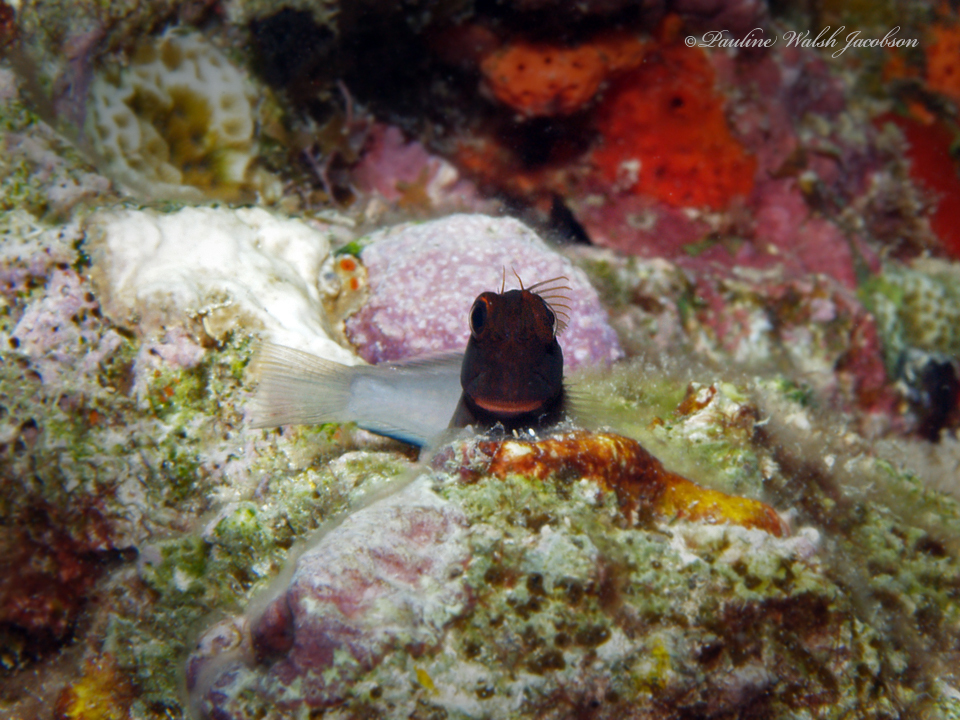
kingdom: Animalia
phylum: Chordata
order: Perciformes
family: Blenniidae
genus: Ophioblennius
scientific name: Ophioblennius macclurei
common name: Redlip blenny
